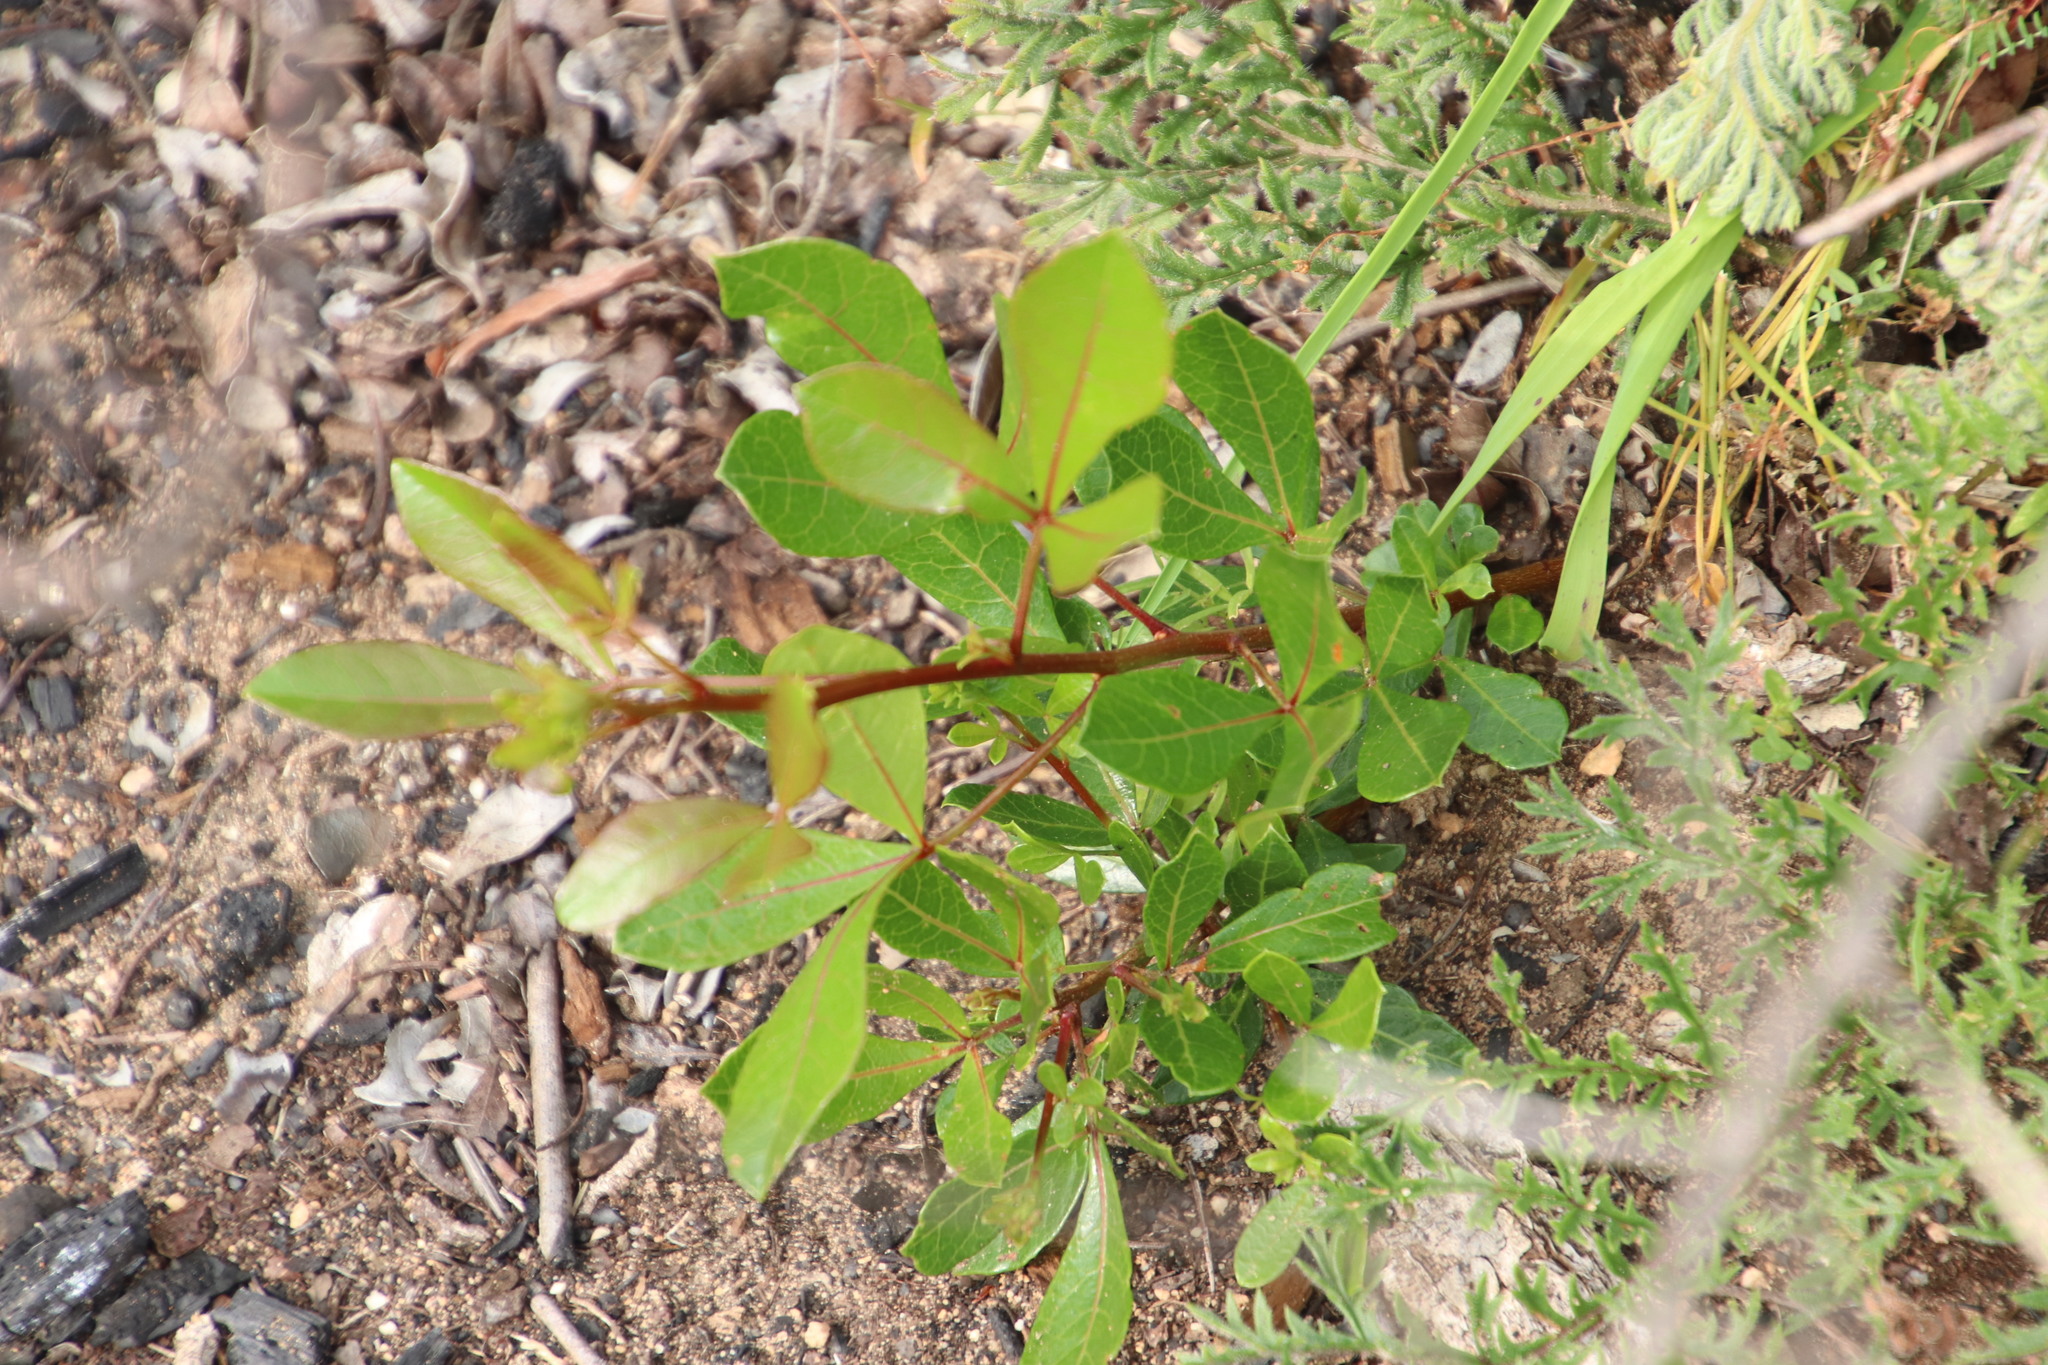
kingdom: Plantae
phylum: Tracheophyta
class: Magnoliopsida
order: Sapindales
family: Anacardiaceae
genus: Searsia
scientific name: Searsia laevigata
